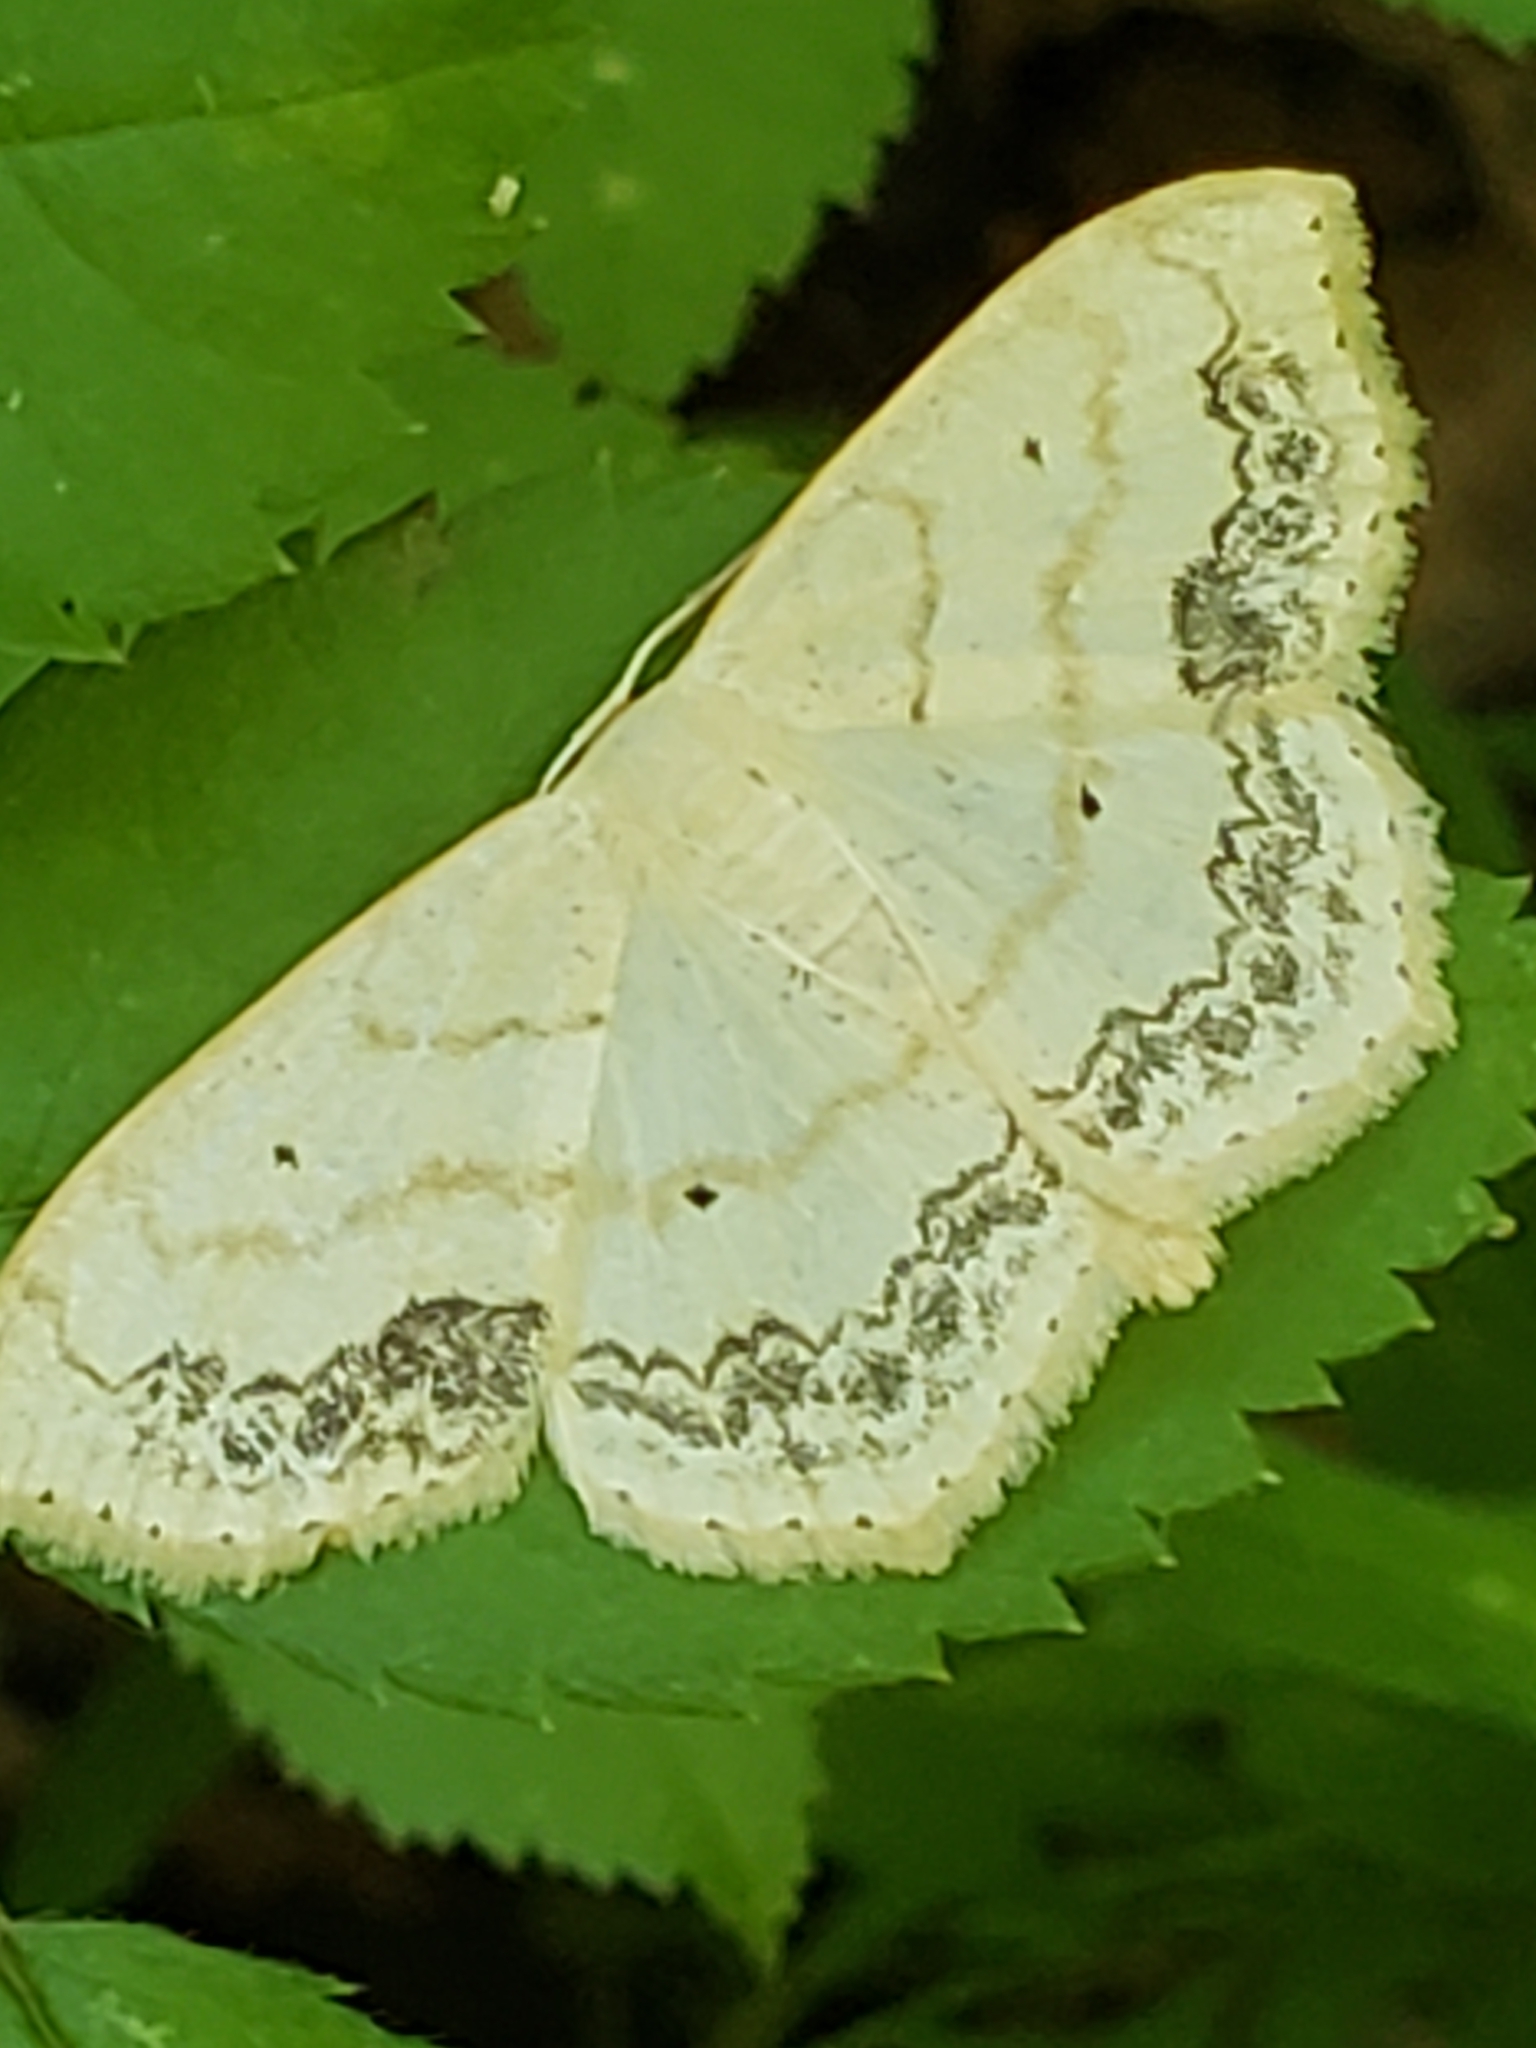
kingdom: Animalia
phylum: Arthropoda
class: Insecta
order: Lepidoptera
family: Geometridae
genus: Scopula
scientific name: Scopula limboundata
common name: Large lace border
